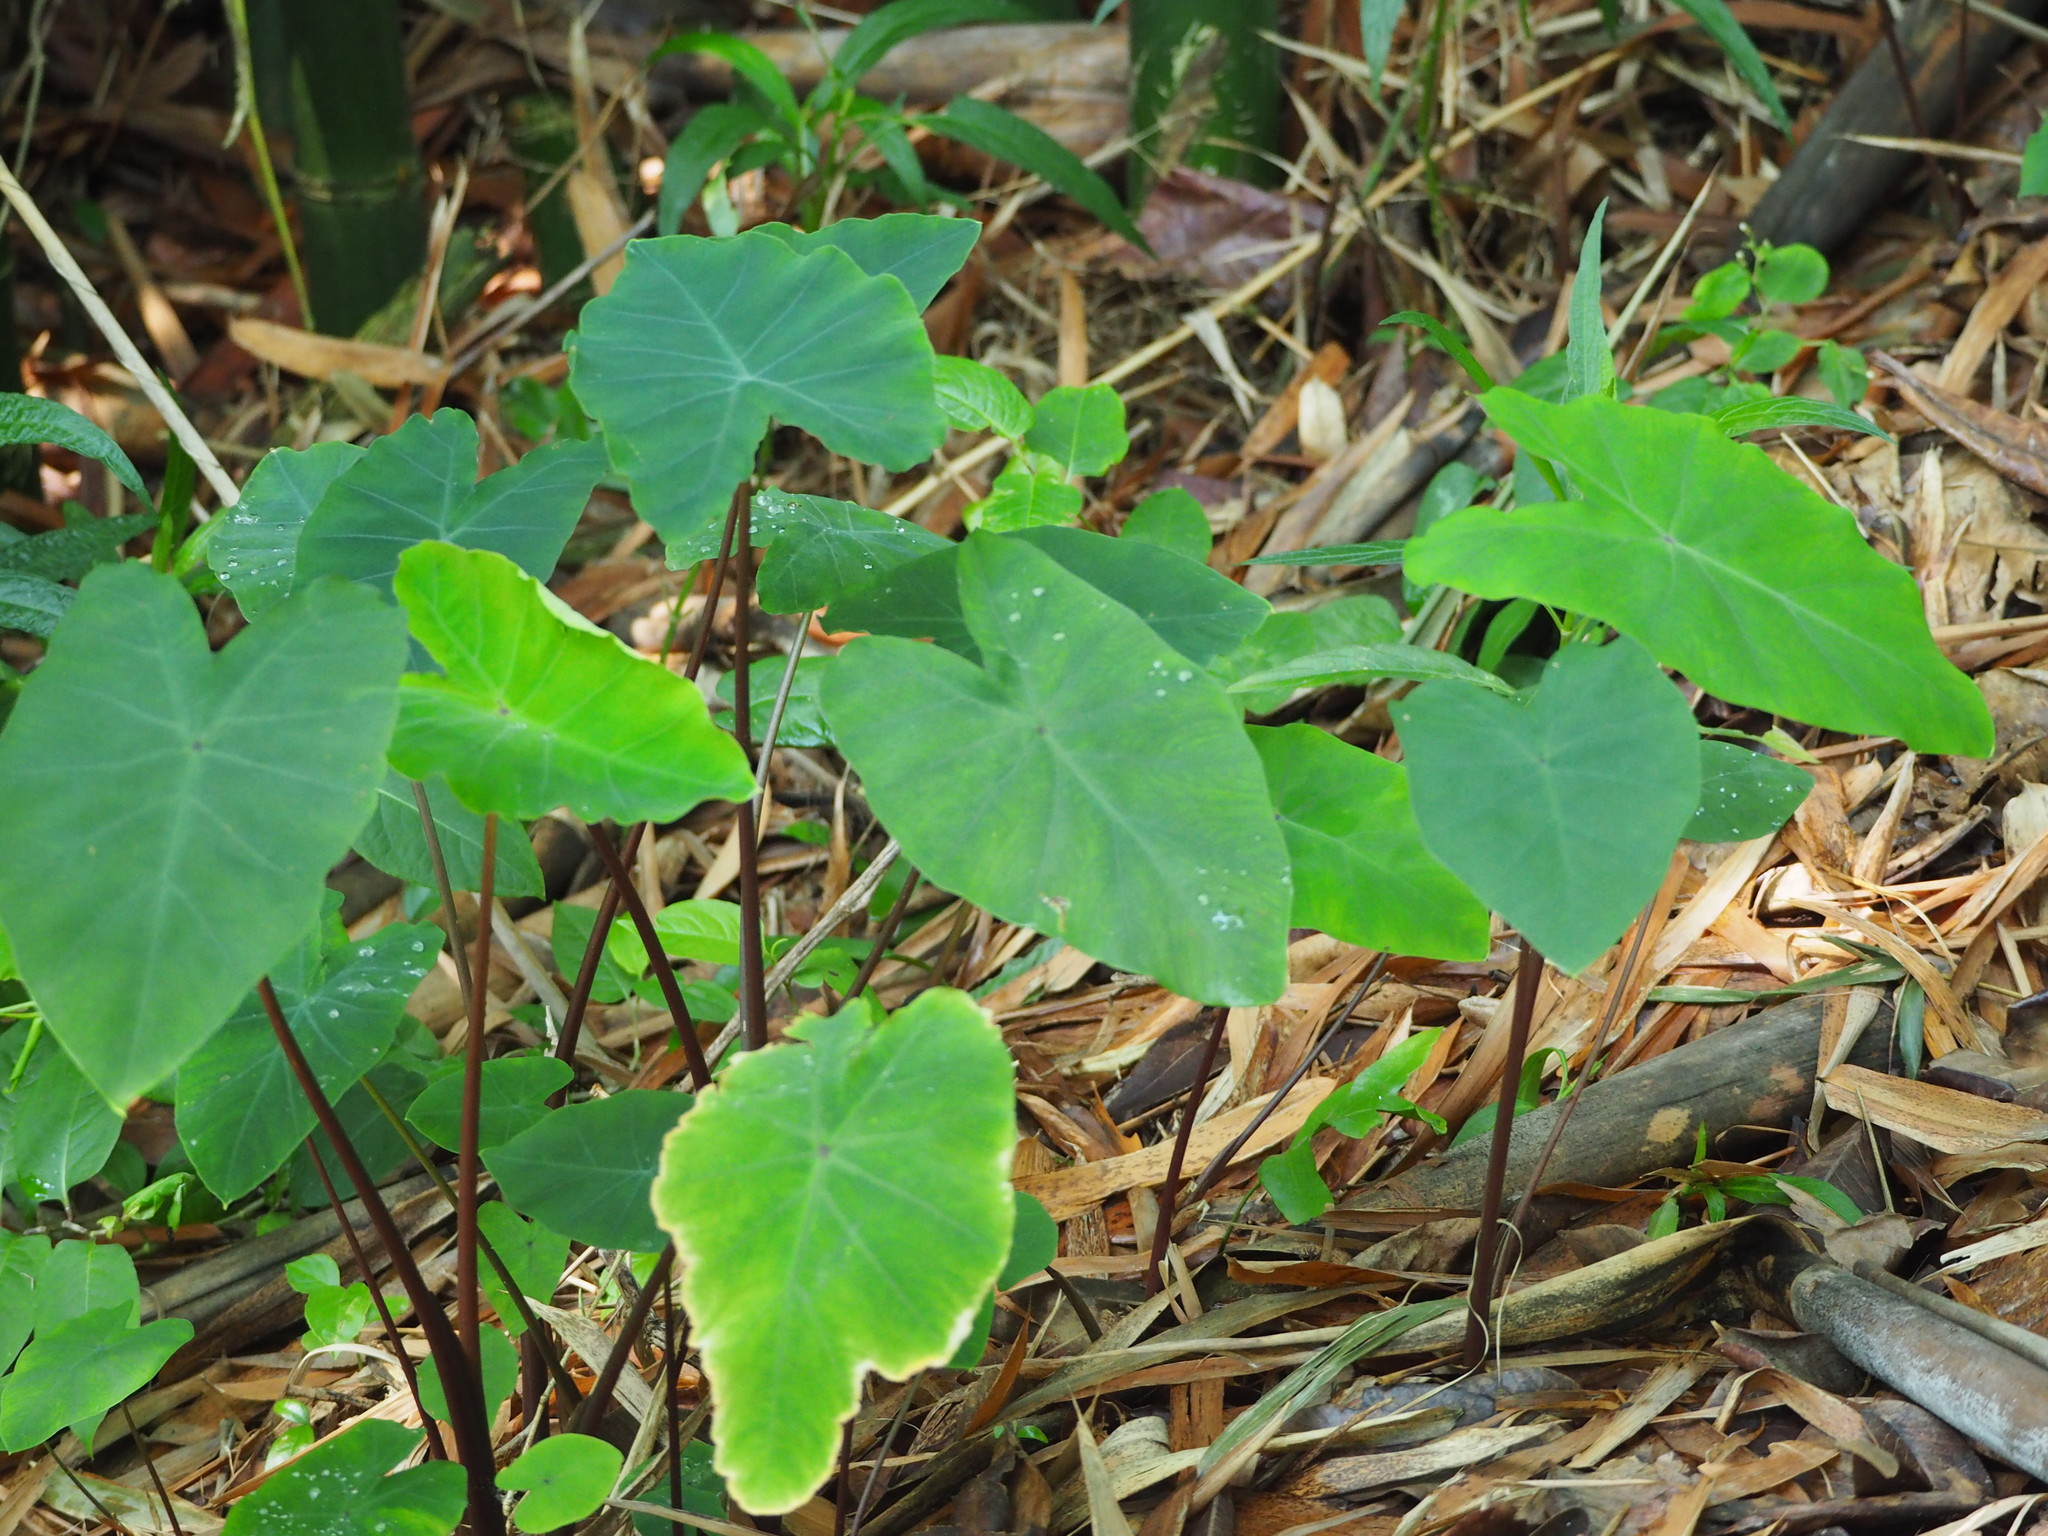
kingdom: Plantae
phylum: Tracheophyta
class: Liliopsida
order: Alismatales
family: Araceae
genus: Colocasia
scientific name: Colocasia esculenta
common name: Taro
